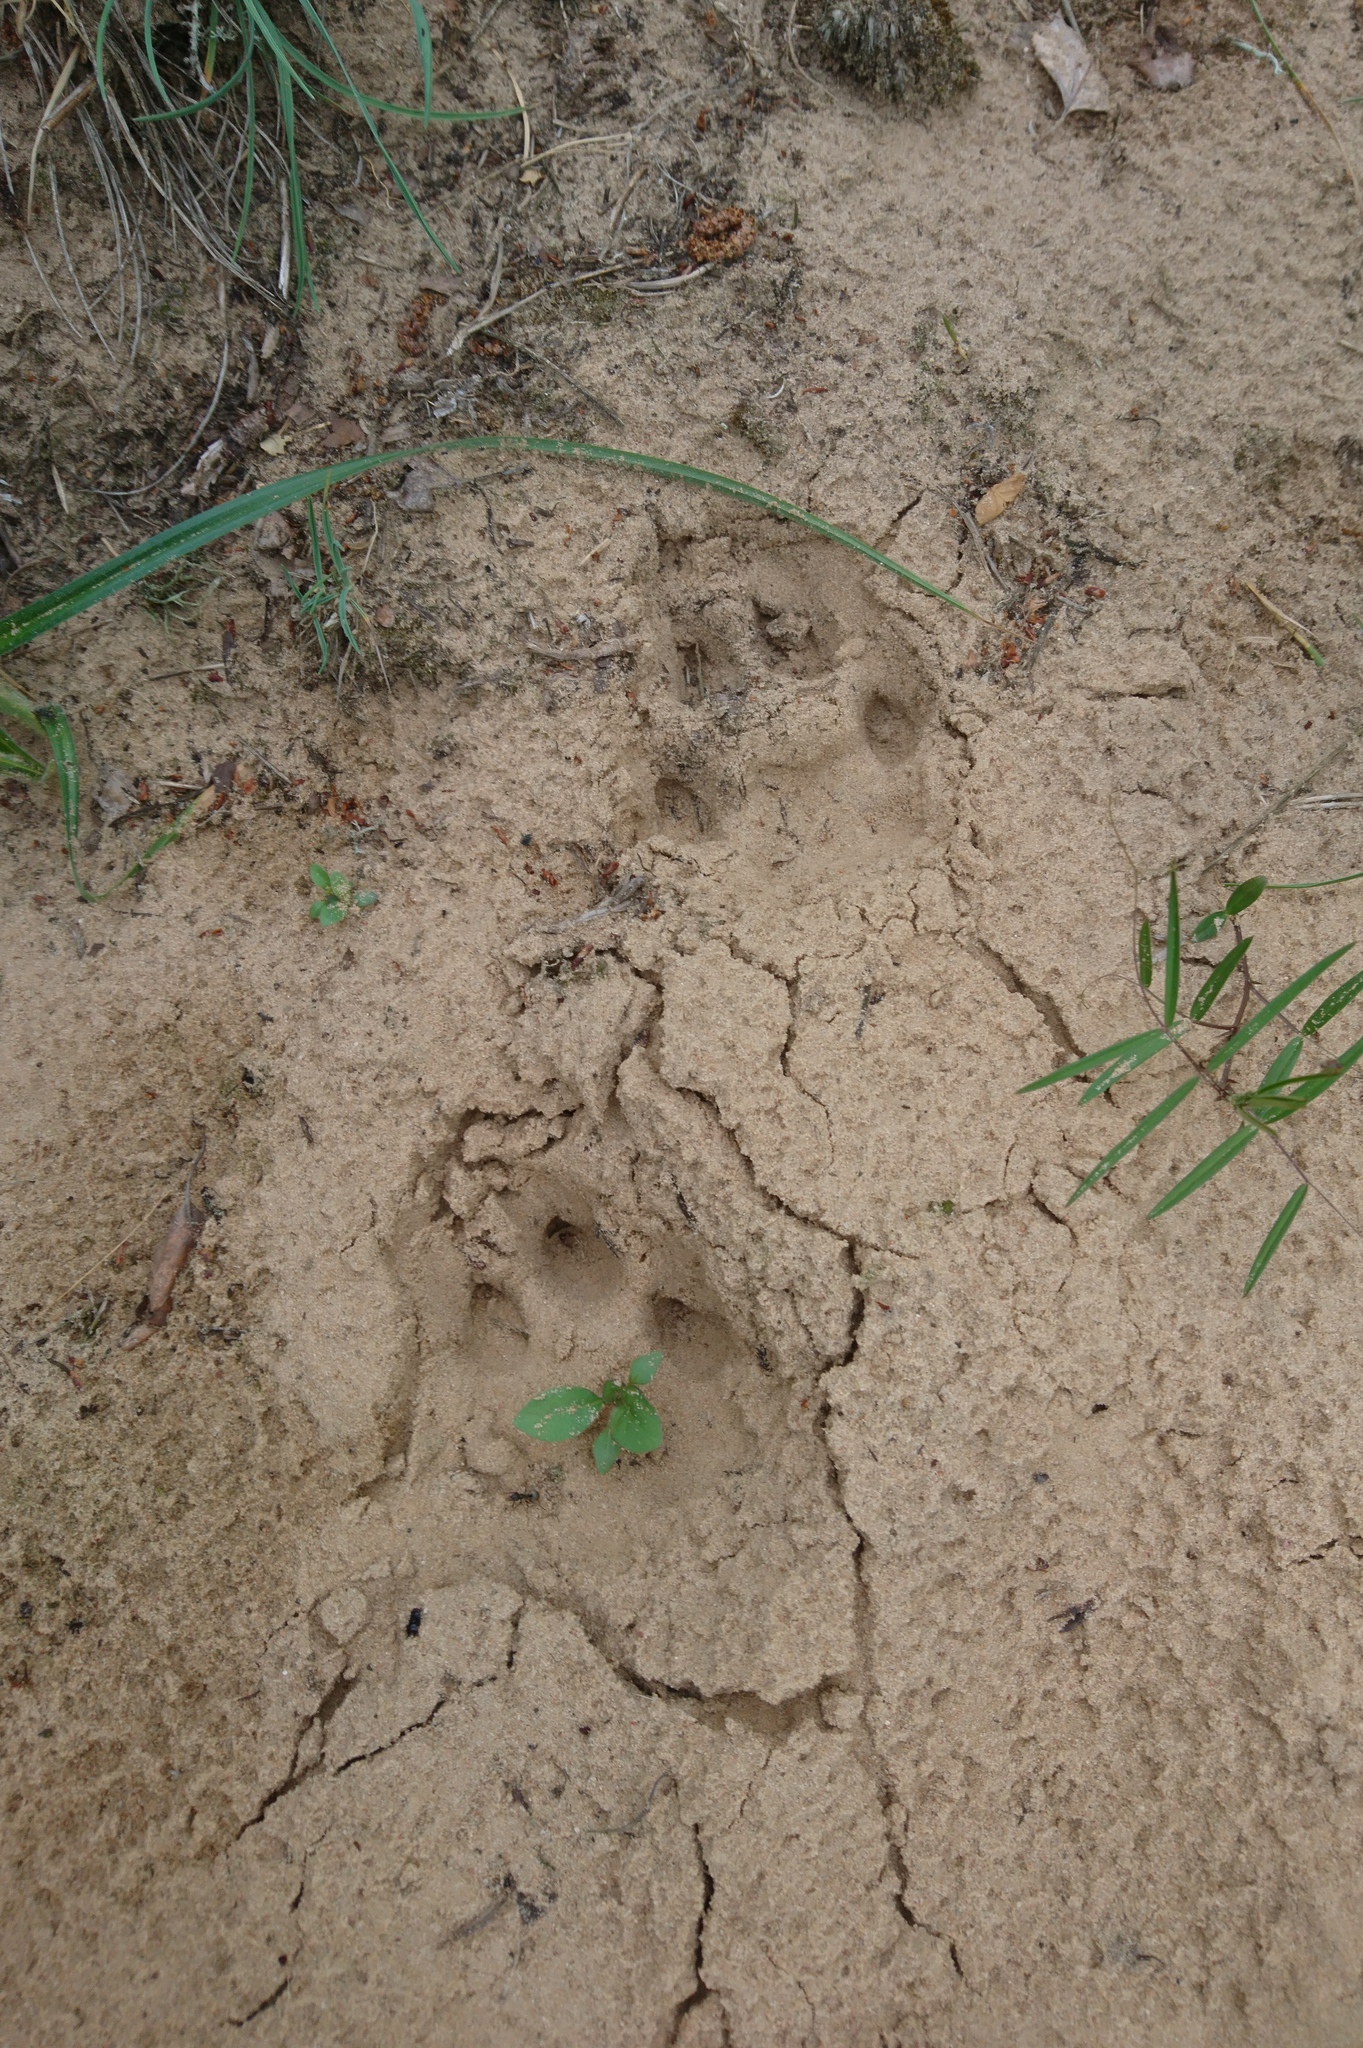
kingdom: Animalia
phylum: Chordata
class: Mammalia
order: Carnivora
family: Canidae
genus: Canis
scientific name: Canis lupus
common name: Gray wolf
